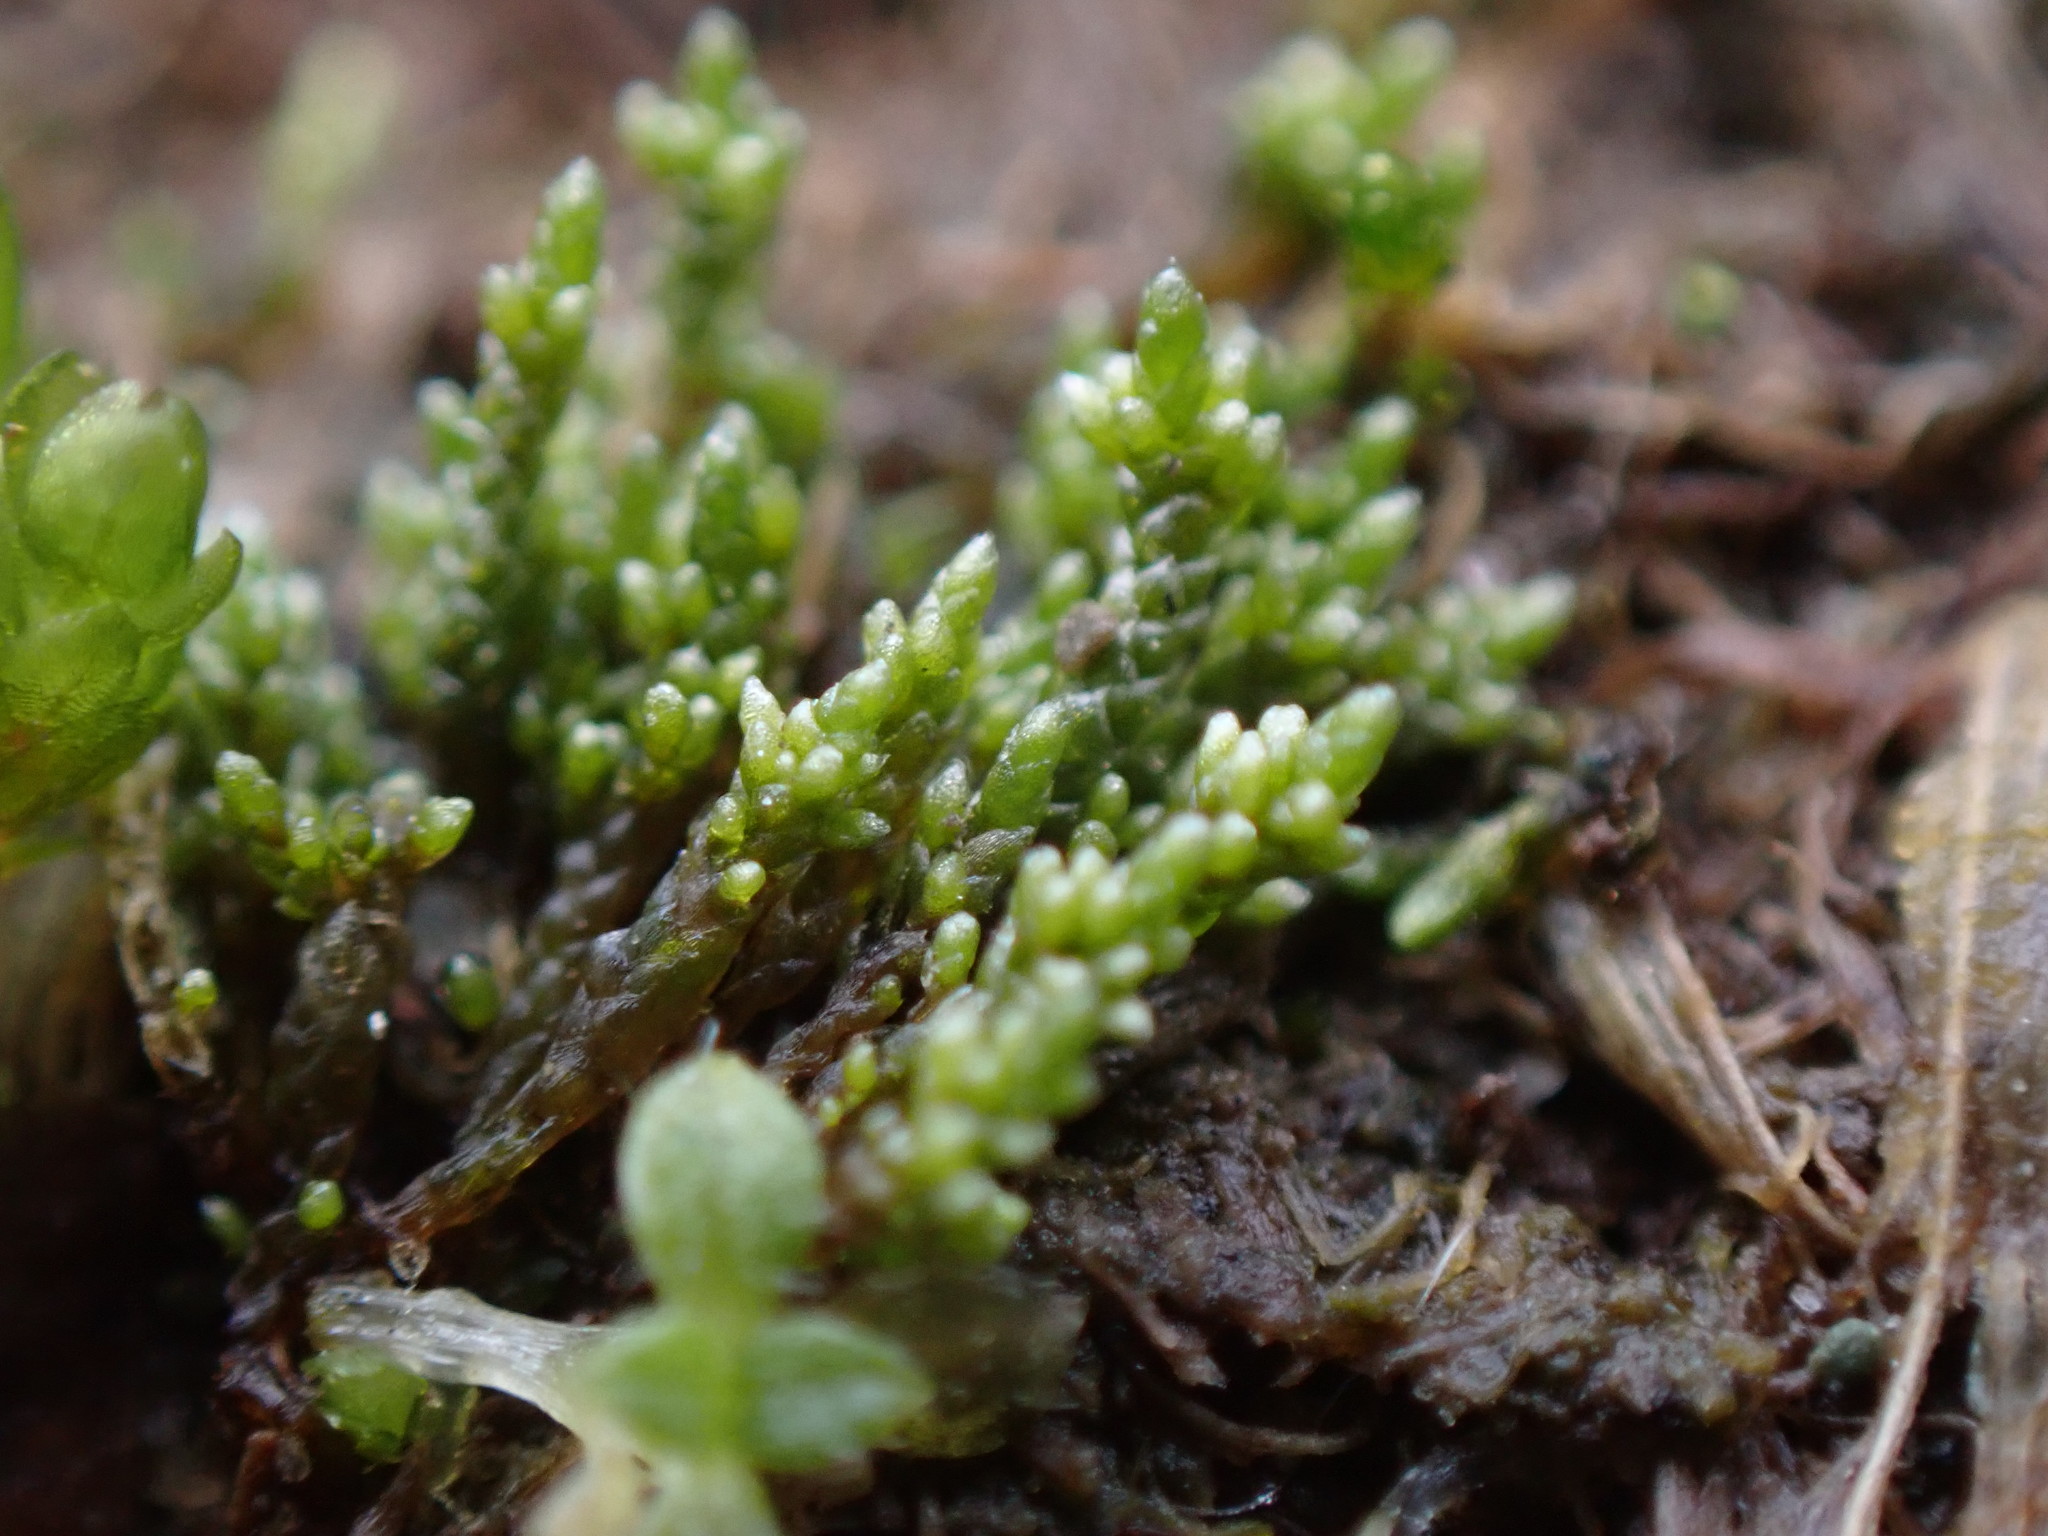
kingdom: Plantae
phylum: Bryophyta
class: Bryopsida
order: Bryales
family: Bryaceae
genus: Bryum
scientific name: Bryum argenteum
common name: Silver-moss
